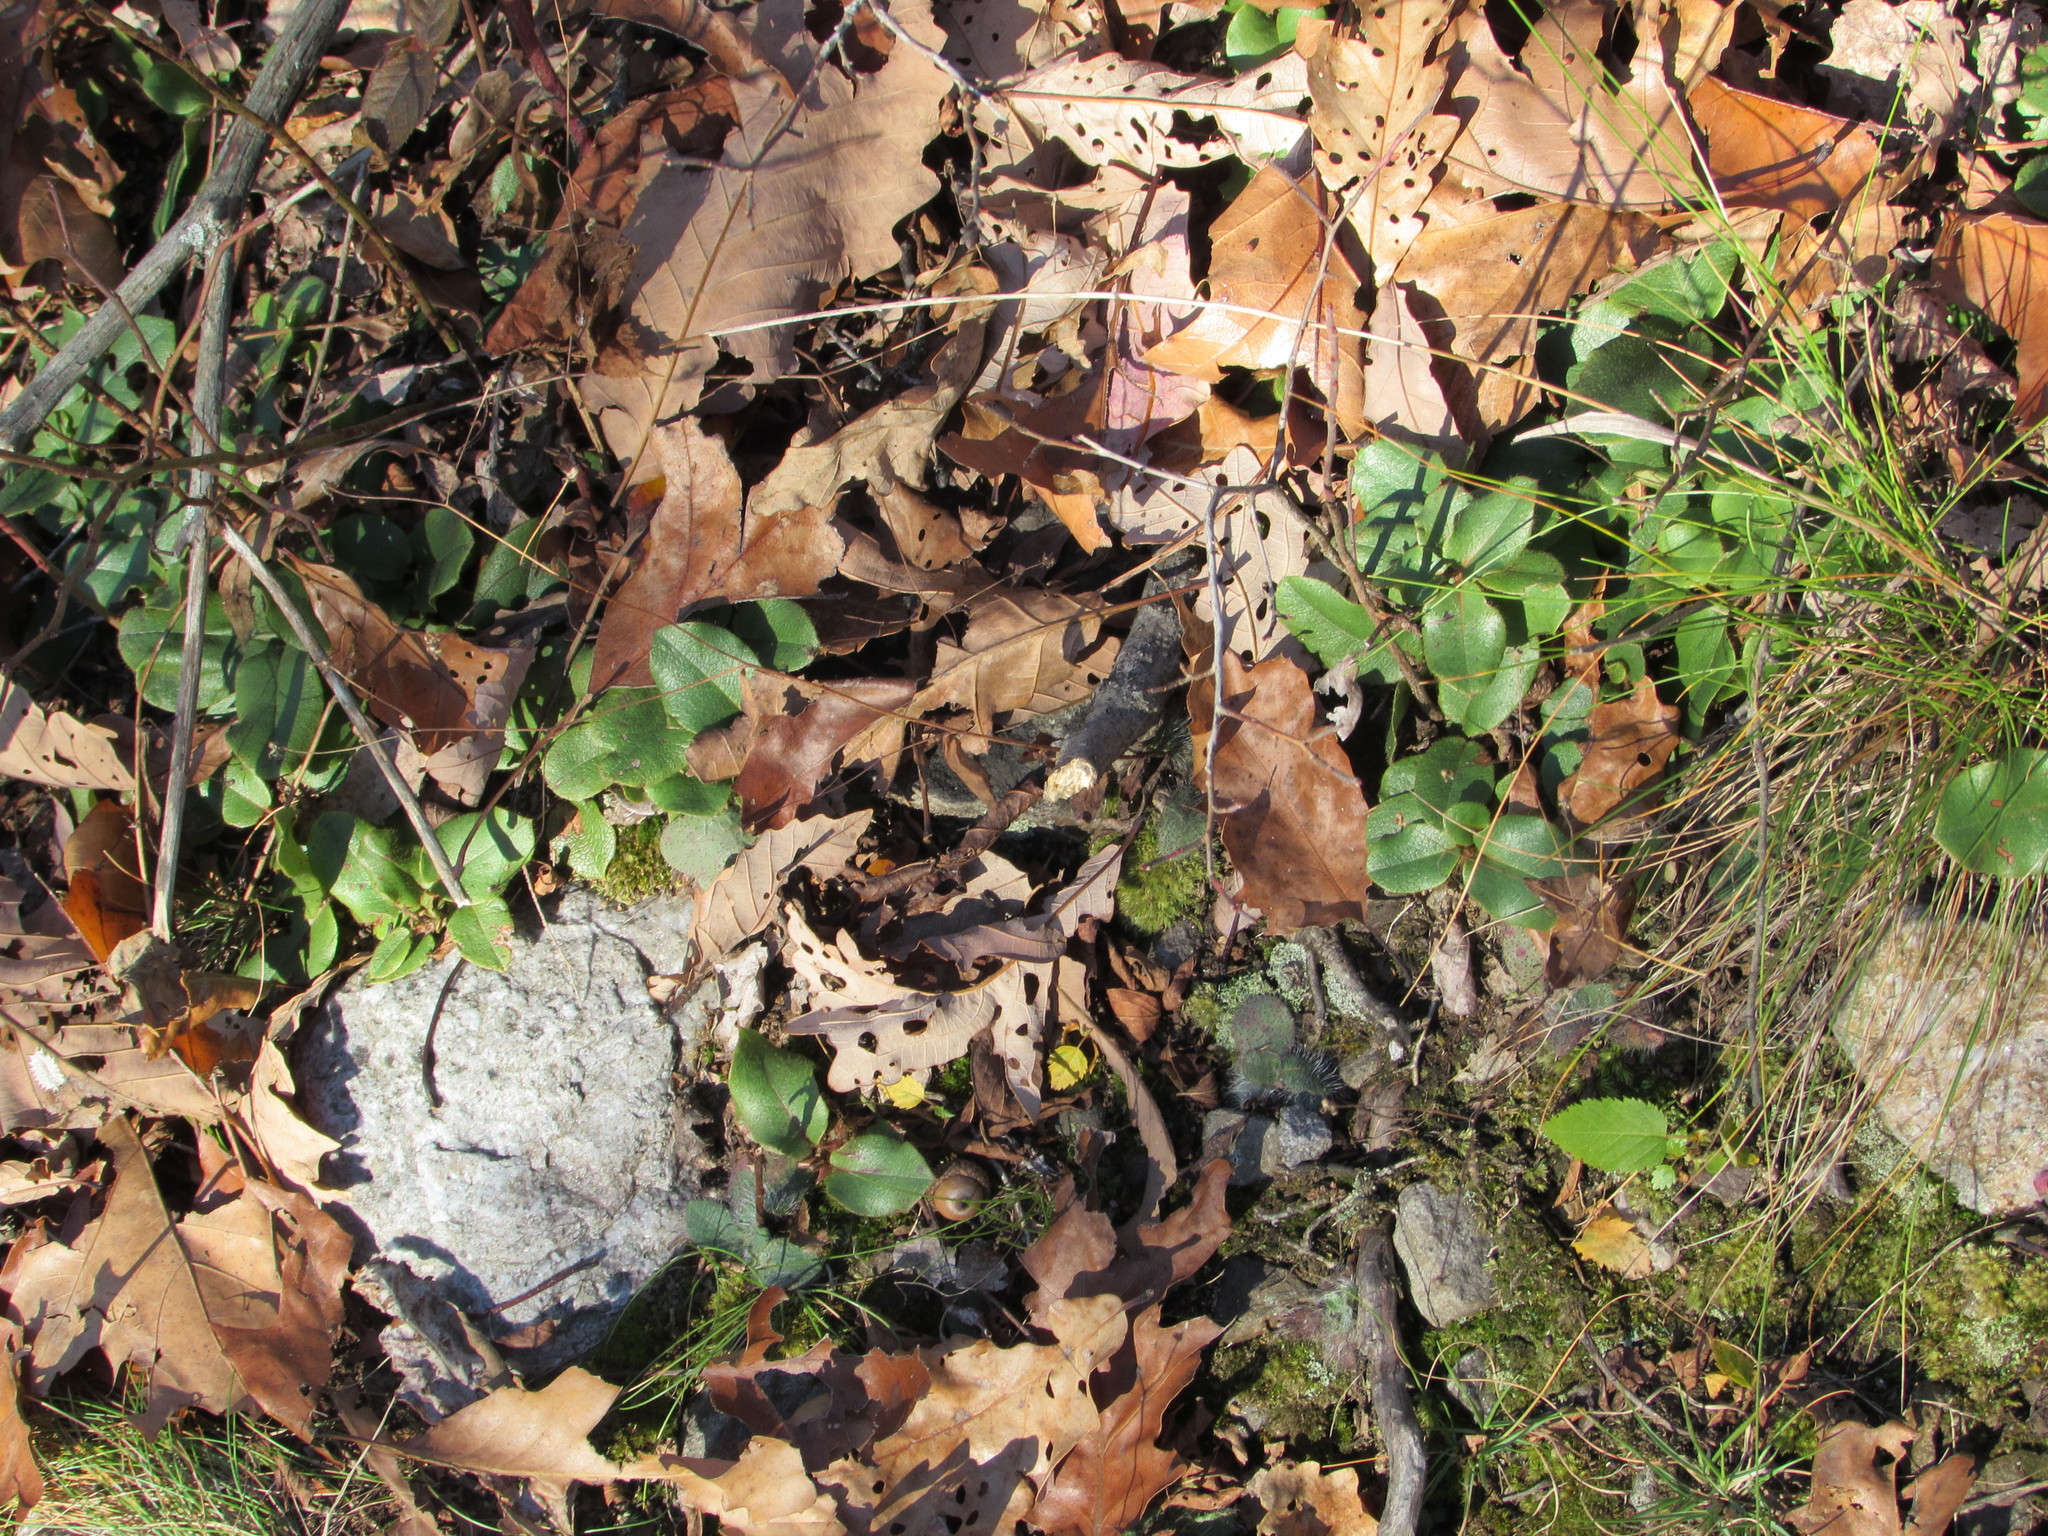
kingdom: Plantae
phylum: Tracheophyta
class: Magnoliopsida
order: Ericales
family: Ericaceae
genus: Epigaea
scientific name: Epigaea repens
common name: Gravelroot
